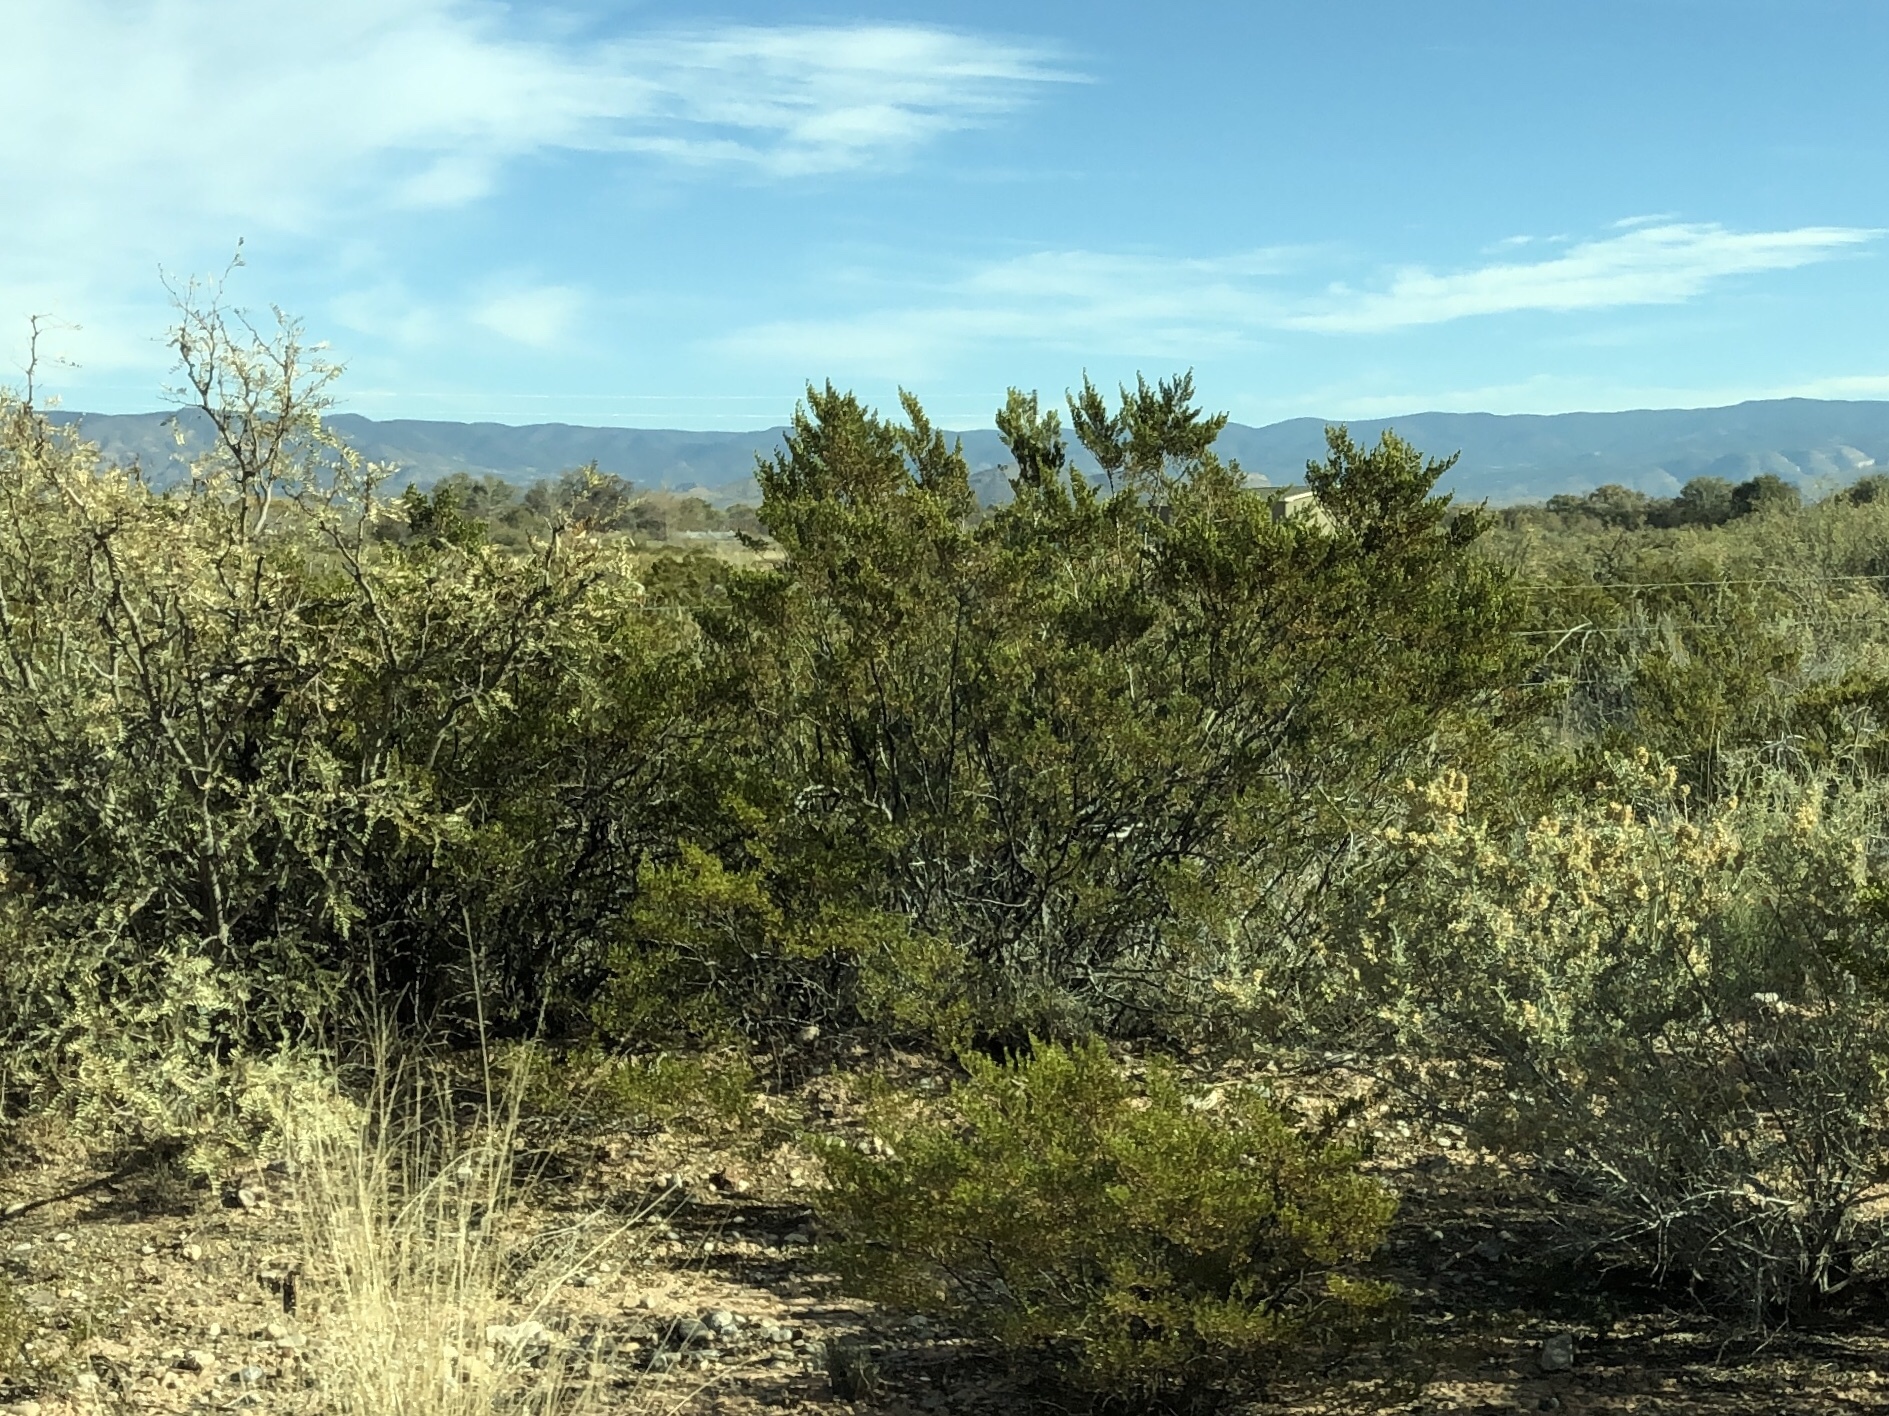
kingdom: Plantae
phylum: Tracheophyta
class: Magnoliopsida
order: Zygophyllales
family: Zygophyllaceae
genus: Larrea
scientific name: Larrea tridentata
